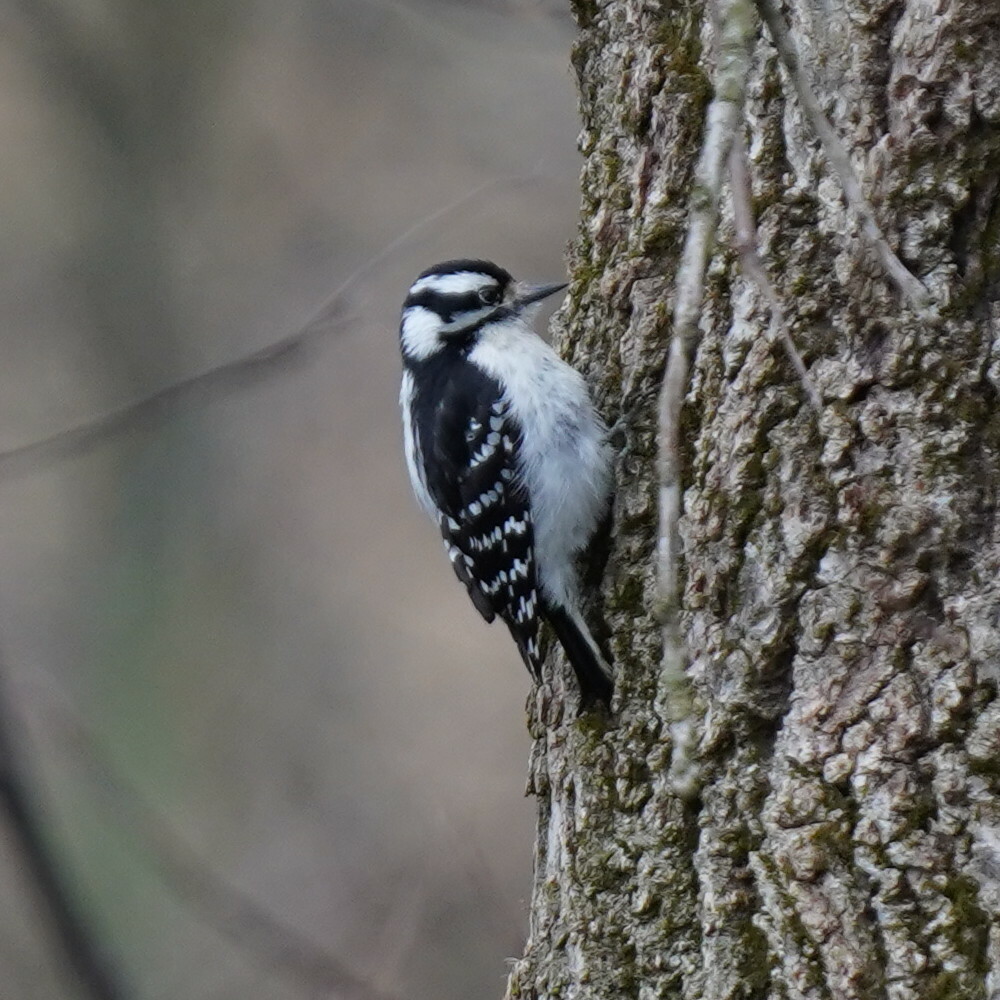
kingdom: Animalia
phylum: Chordata
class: Aves
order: Piciformes
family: Picidae
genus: Dryobates
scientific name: Dryobates pubescens
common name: Downy woodpecker
